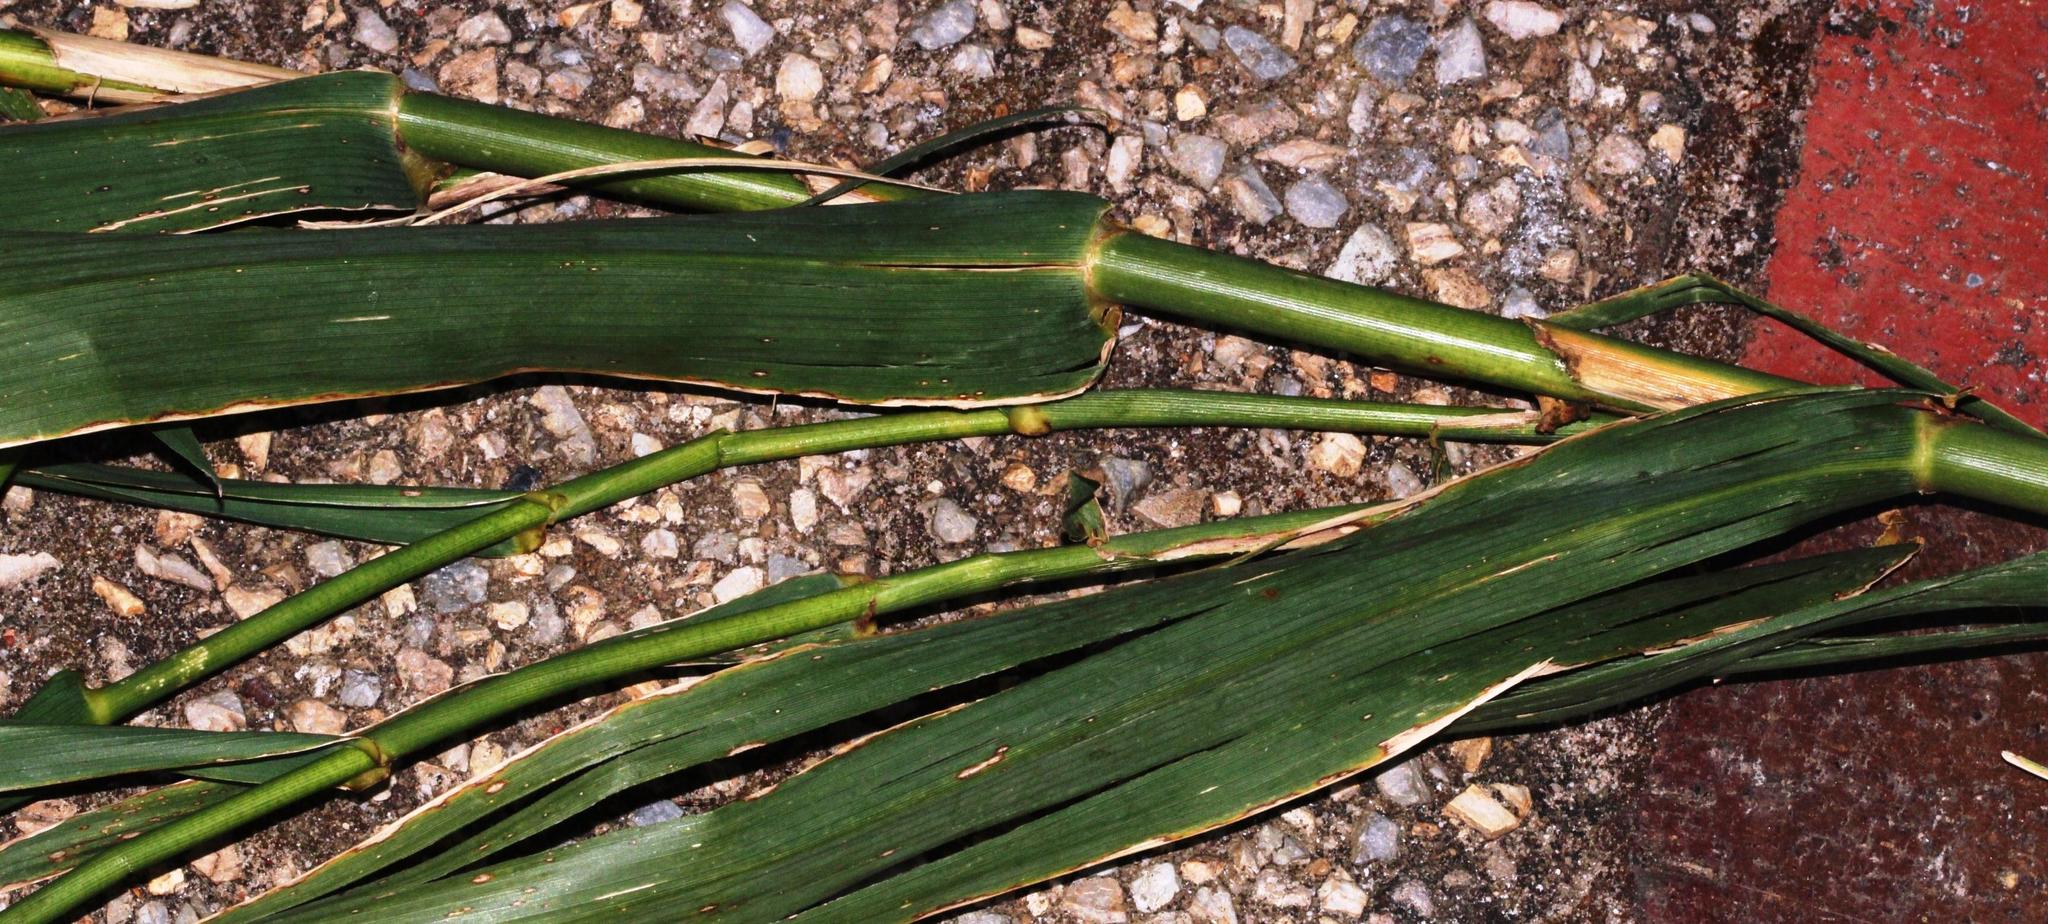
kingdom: Plantae
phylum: Tracheophyta
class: Liliopsida
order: Poales
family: Poaceae
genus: Arundo
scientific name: Arundo donax
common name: Giant reed
